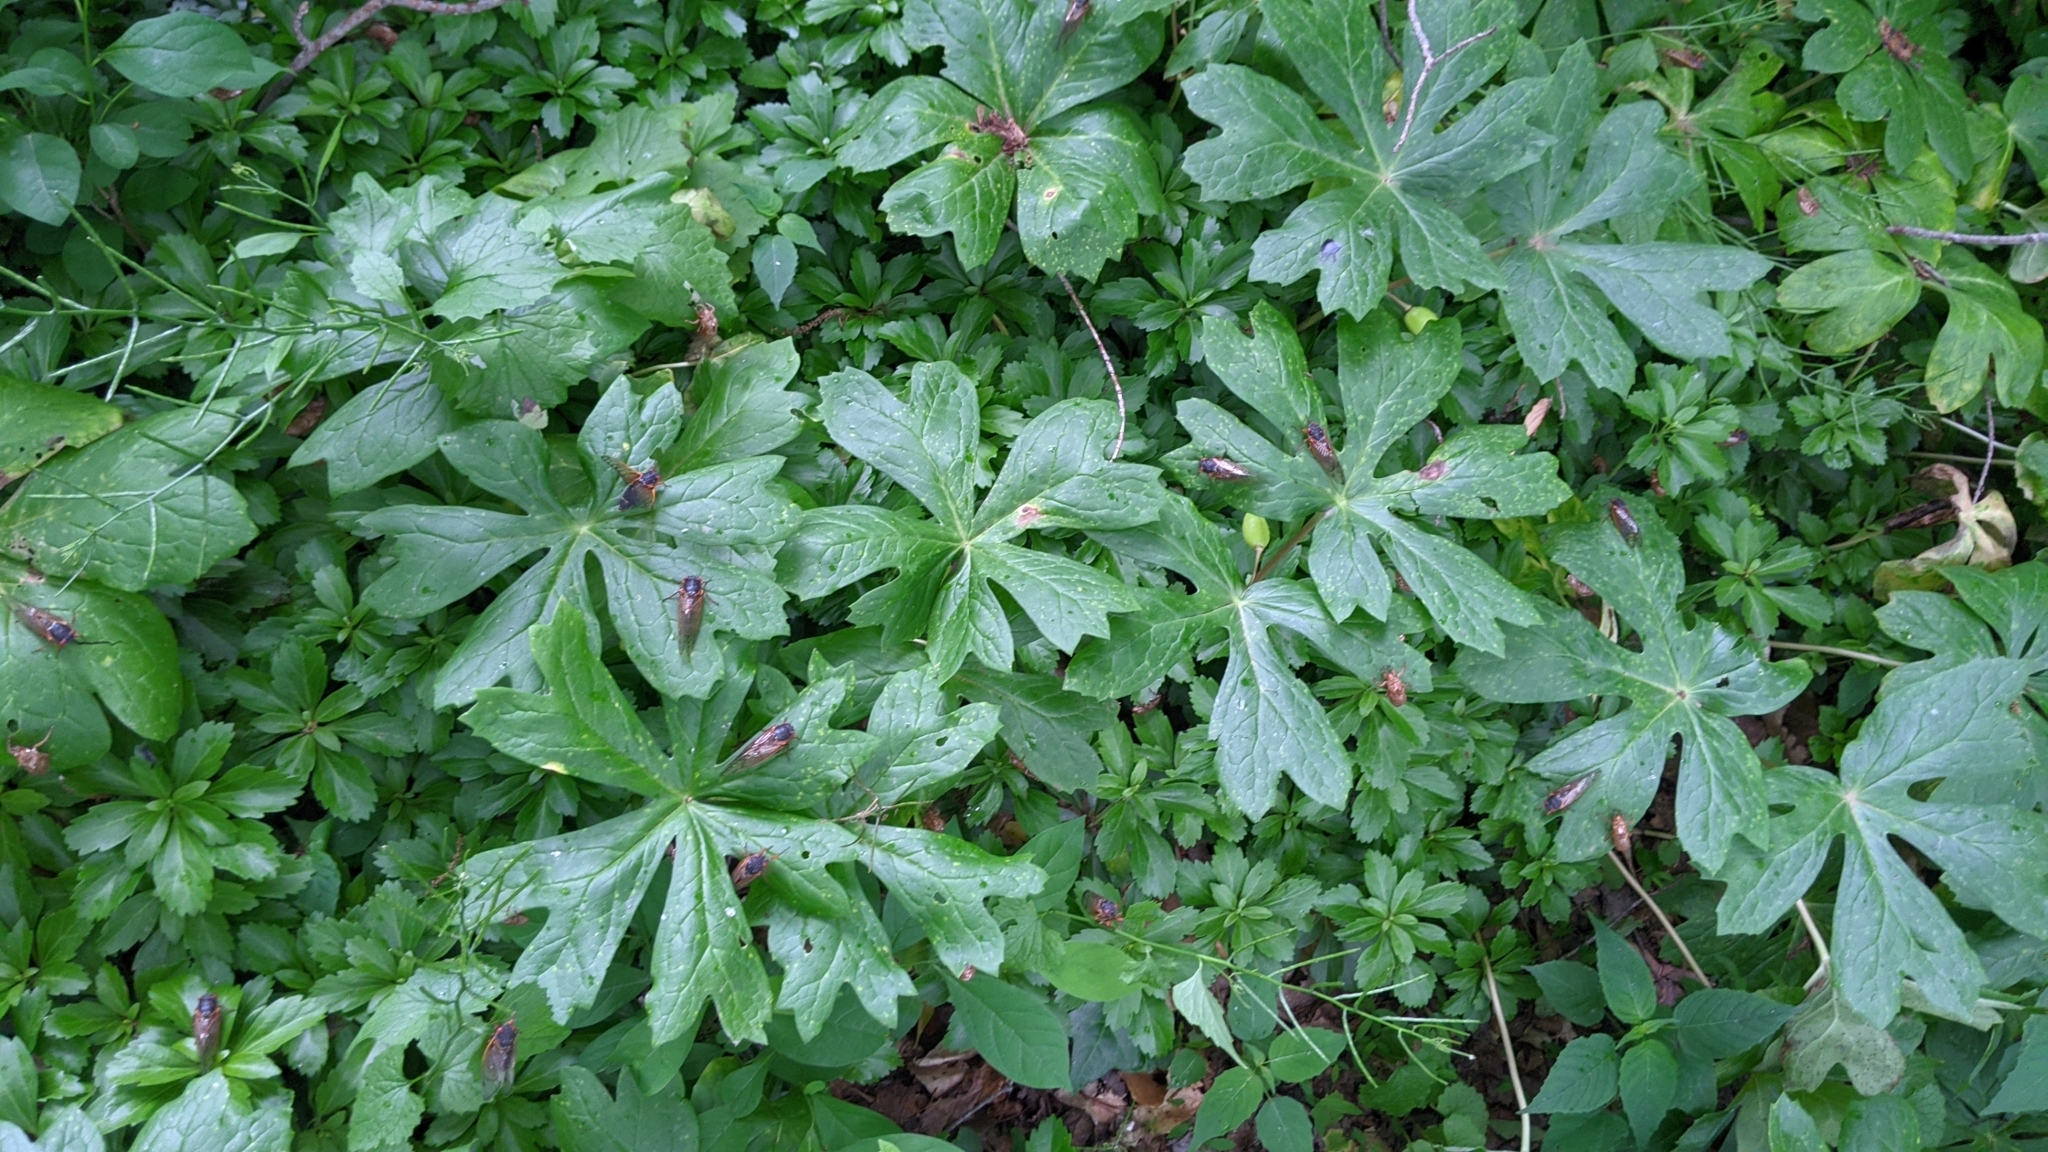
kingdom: Plantae
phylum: Tracheophyta
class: Magnoliopsida
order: Ranunculales
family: Berberidaceae
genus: Podophyllum
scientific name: Podophyllum peltatum
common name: Wild mandrake
